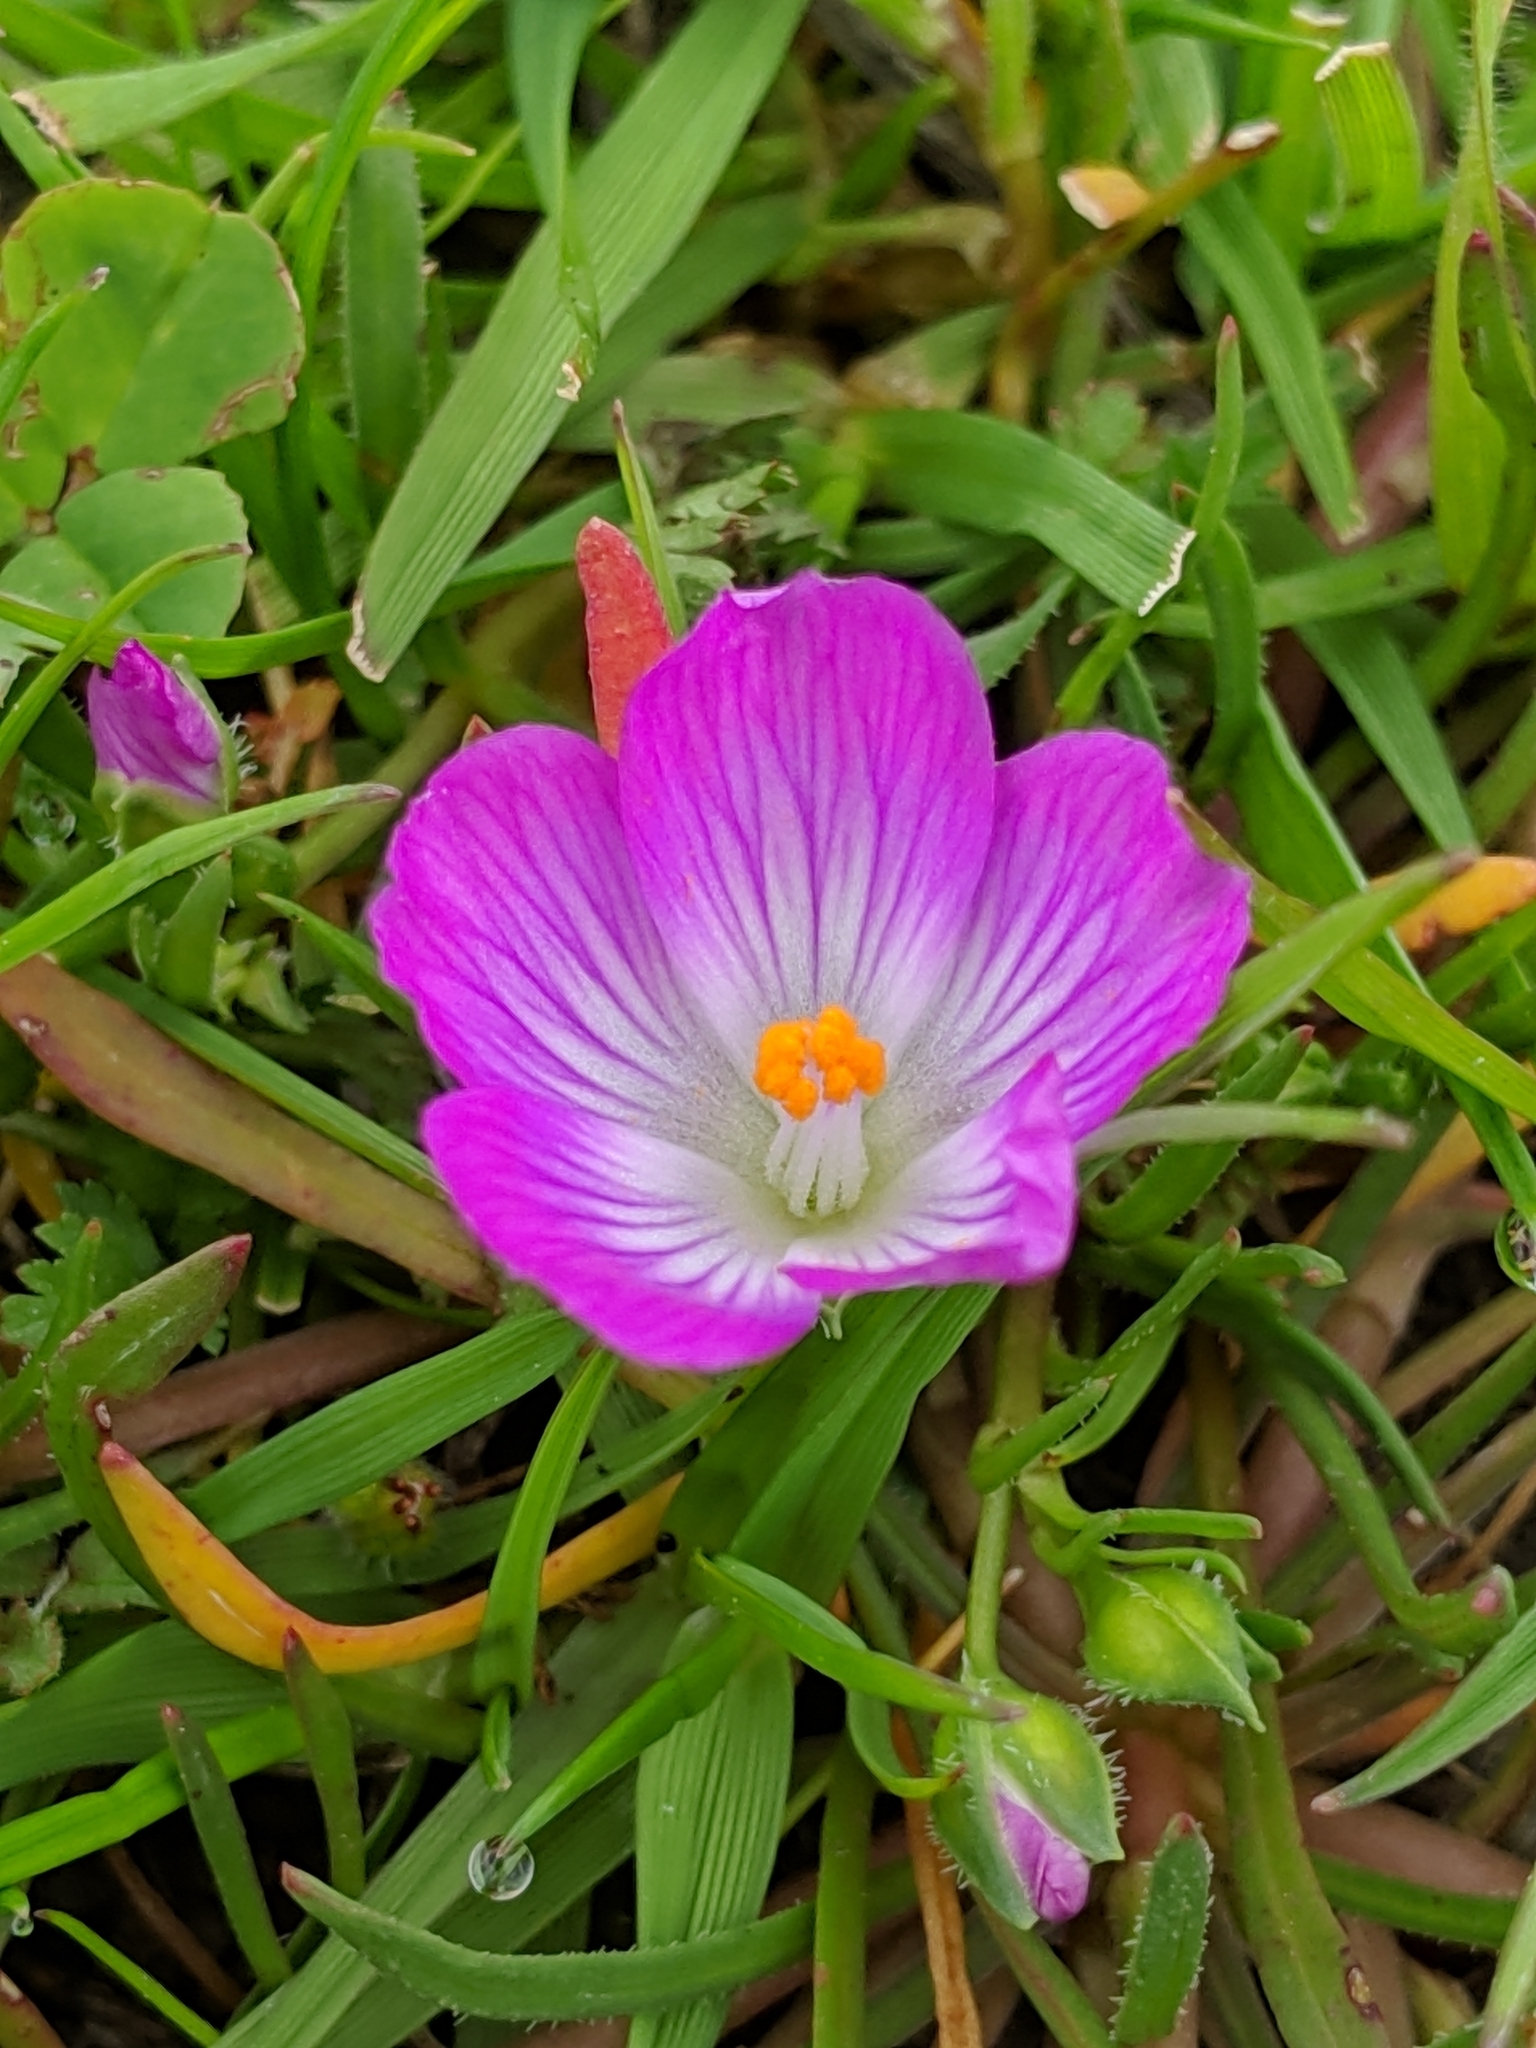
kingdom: Plantae
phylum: Tracheophyta
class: Magnoliopsida
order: Caryophyllales
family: Montiaceae
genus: Calandrinia
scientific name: Calandrinia menziesii
